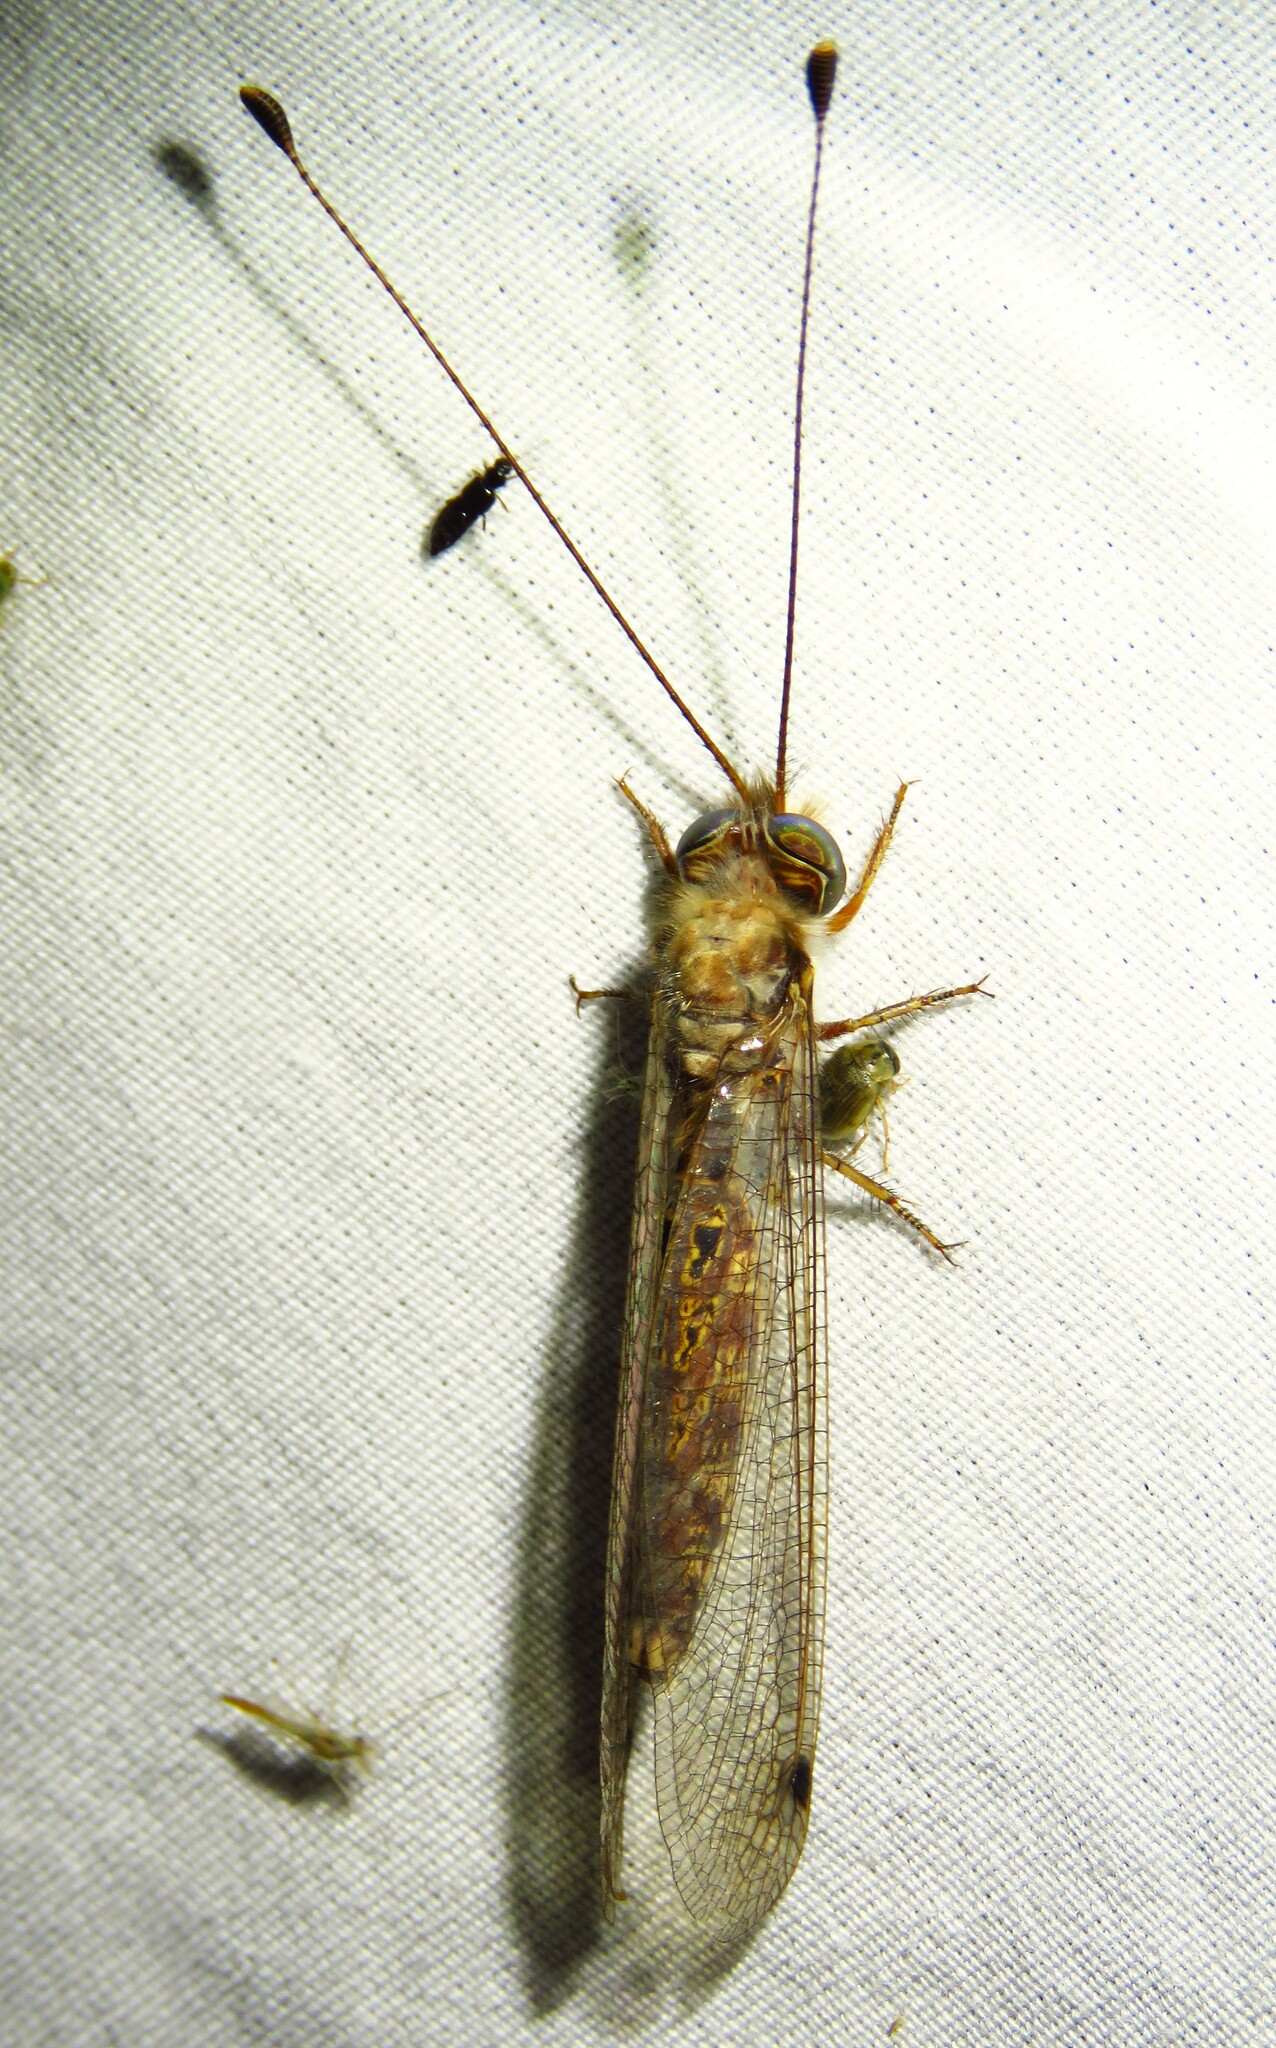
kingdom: Animalia
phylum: Arthropoda
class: Insecta
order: Neuroptera
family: Ascalaphidae
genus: Ululodes
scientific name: Ululodes macleayanus
